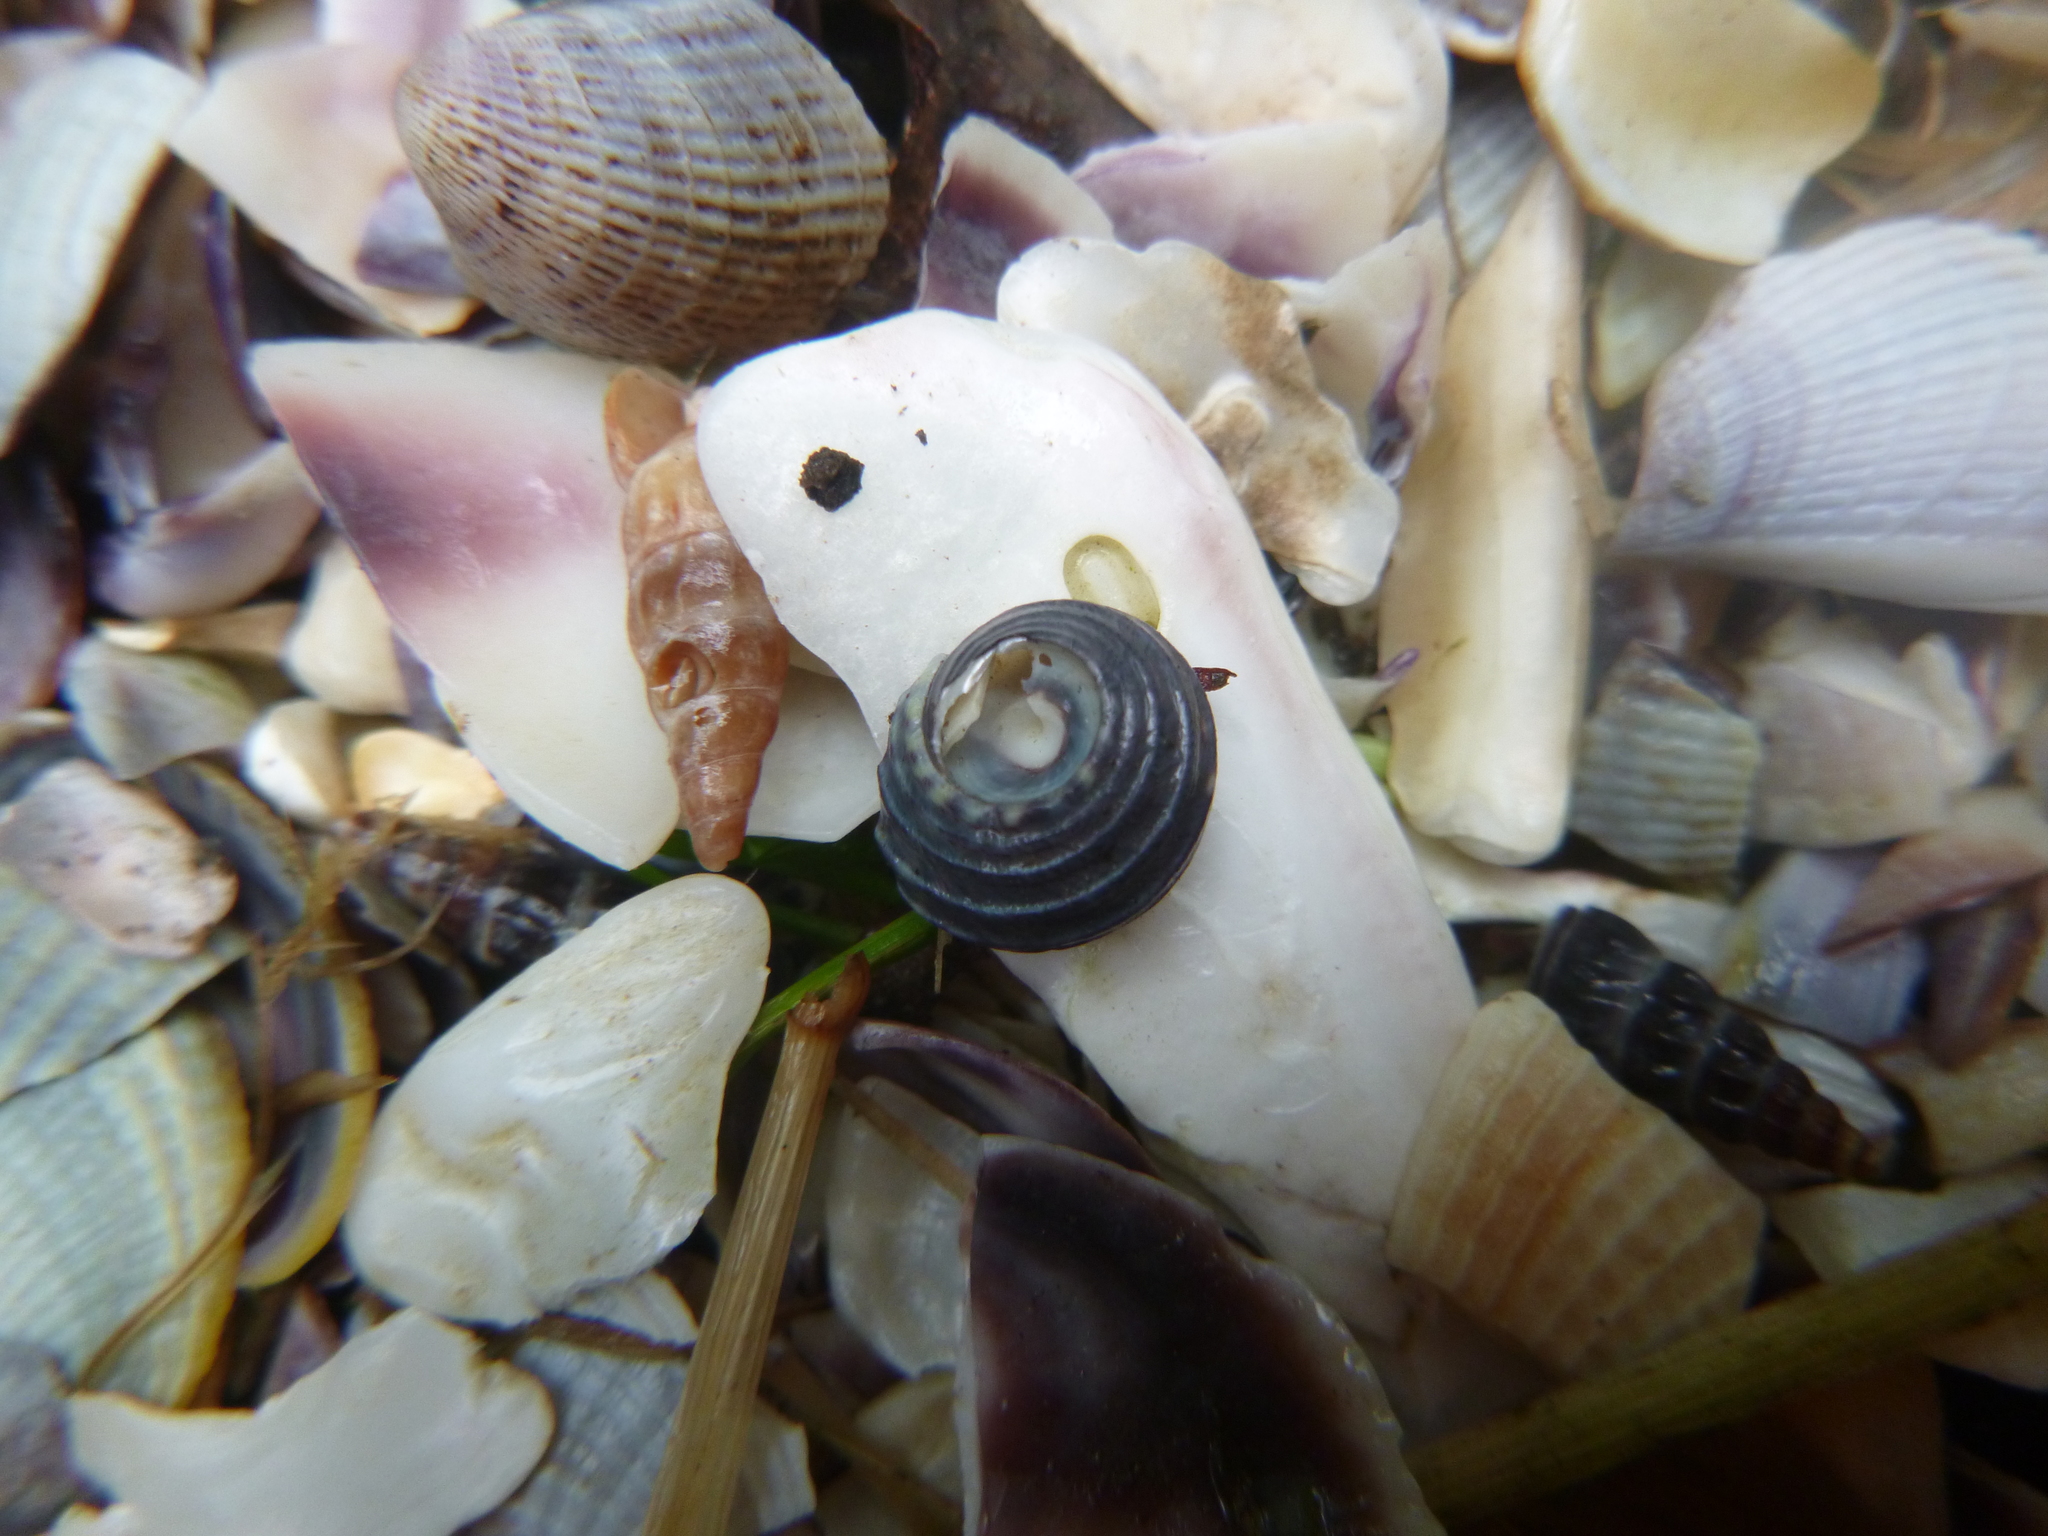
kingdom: Animalia
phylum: Mollusca
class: Gastropoda
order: Trochida
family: Trochidae
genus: Diloma
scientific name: Diloma subrostratum
